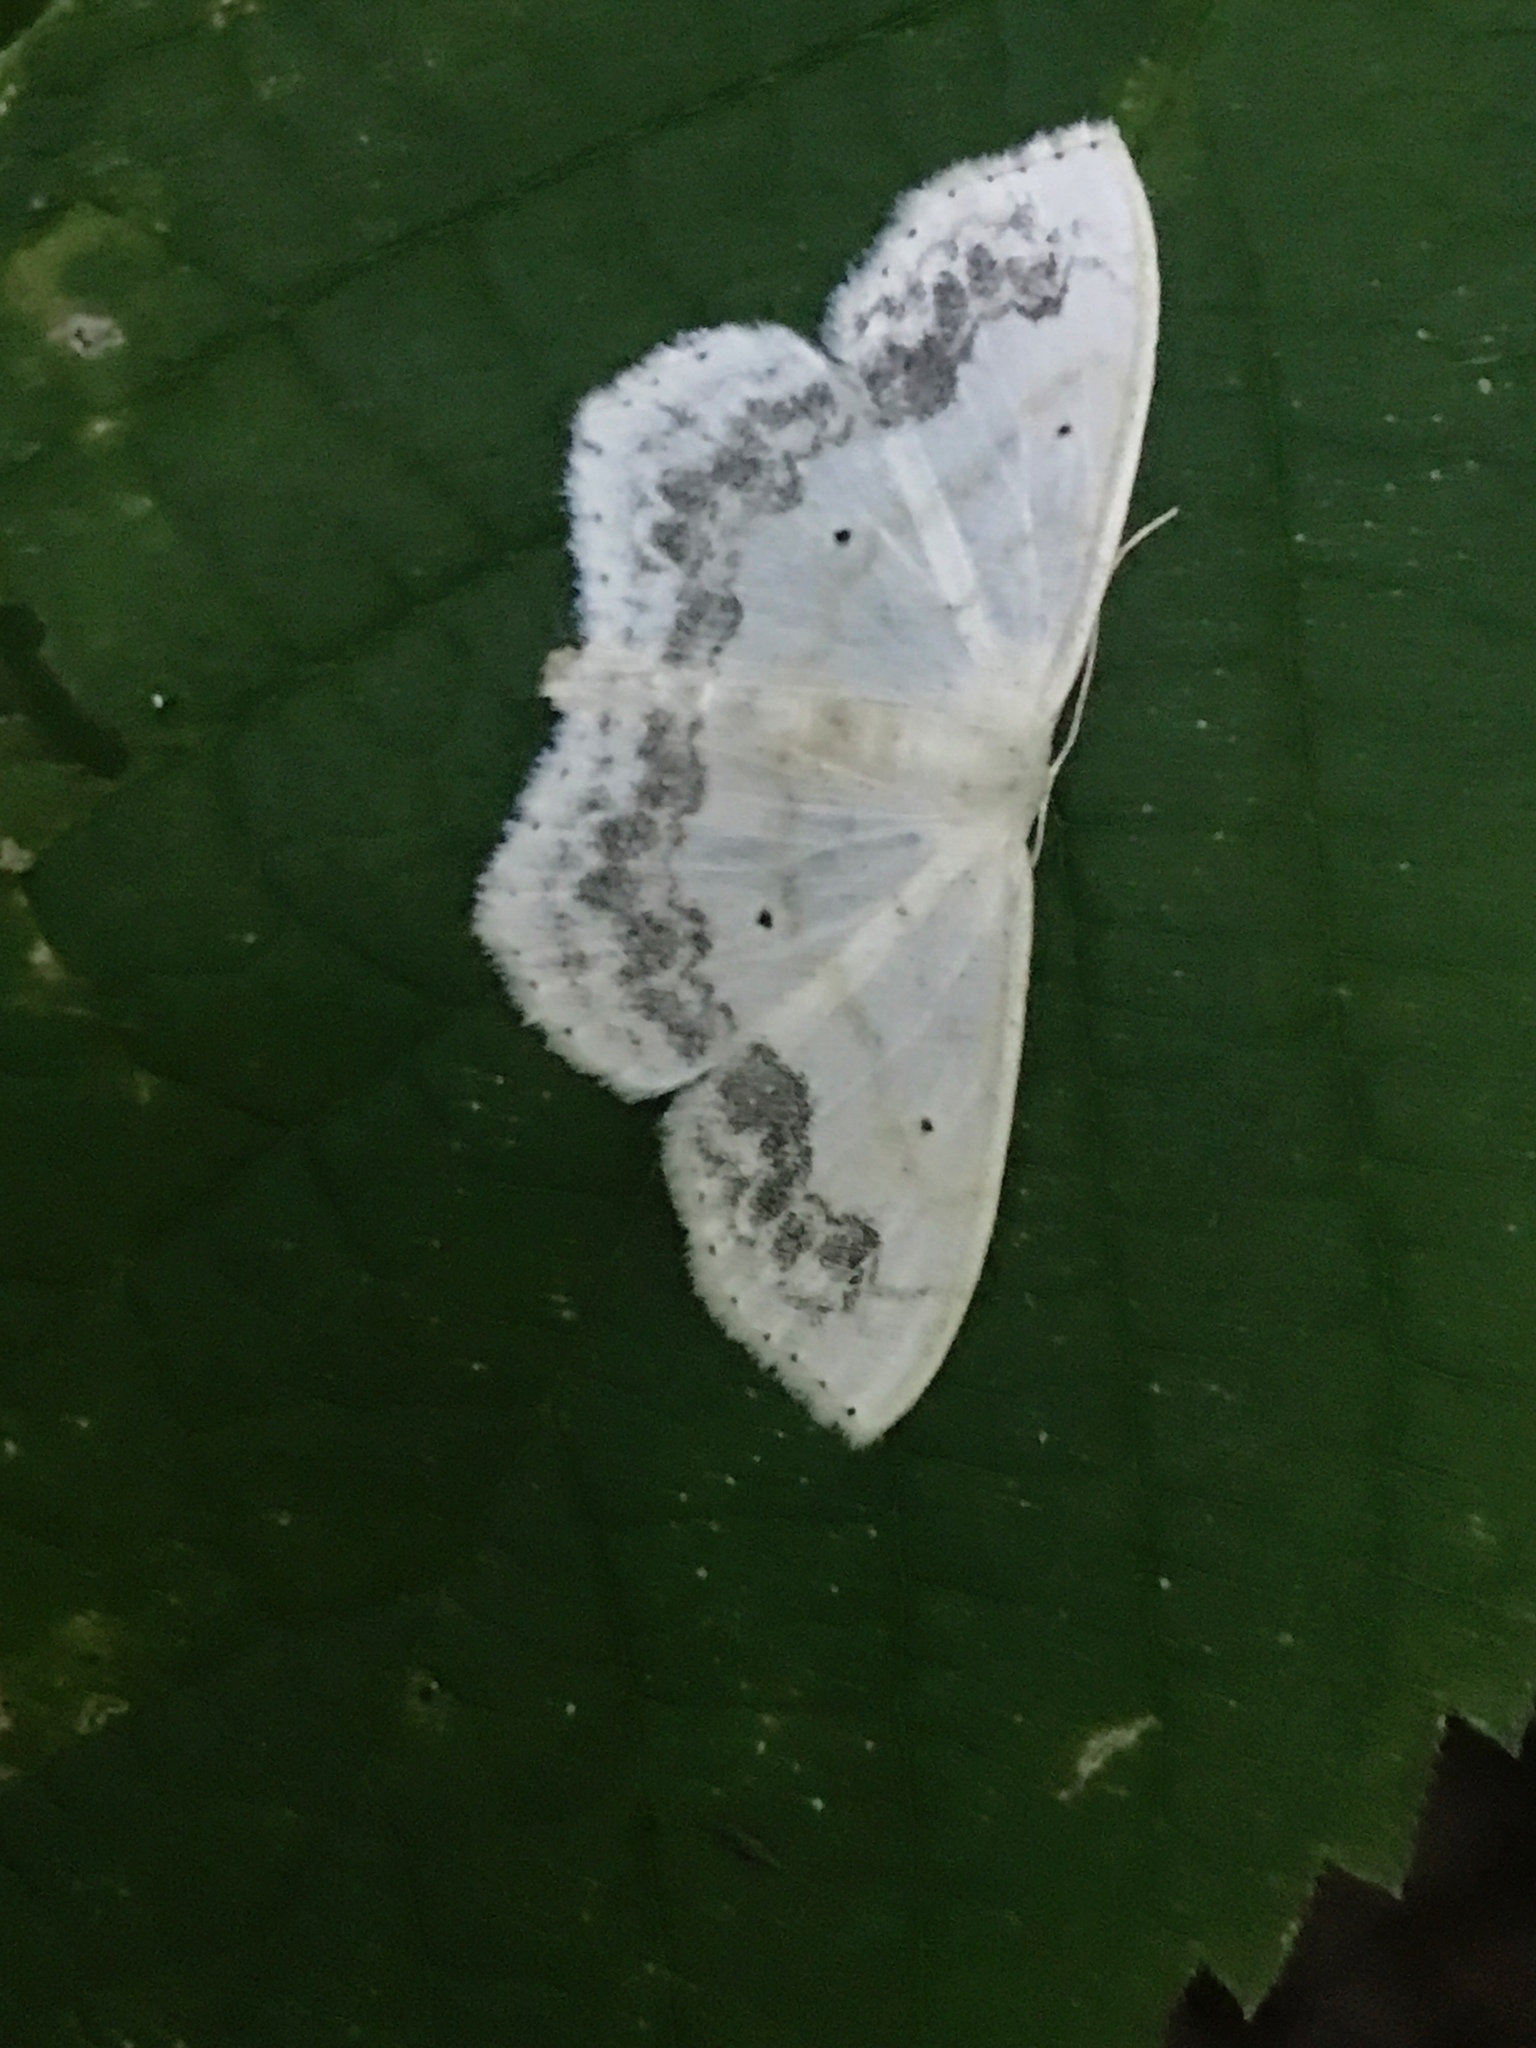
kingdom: Animalia
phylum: Arthropoda
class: Insecta
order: Lepidoptera
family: Geometridae
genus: Scopula
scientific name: Scopula limboundata
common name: Large lace border
